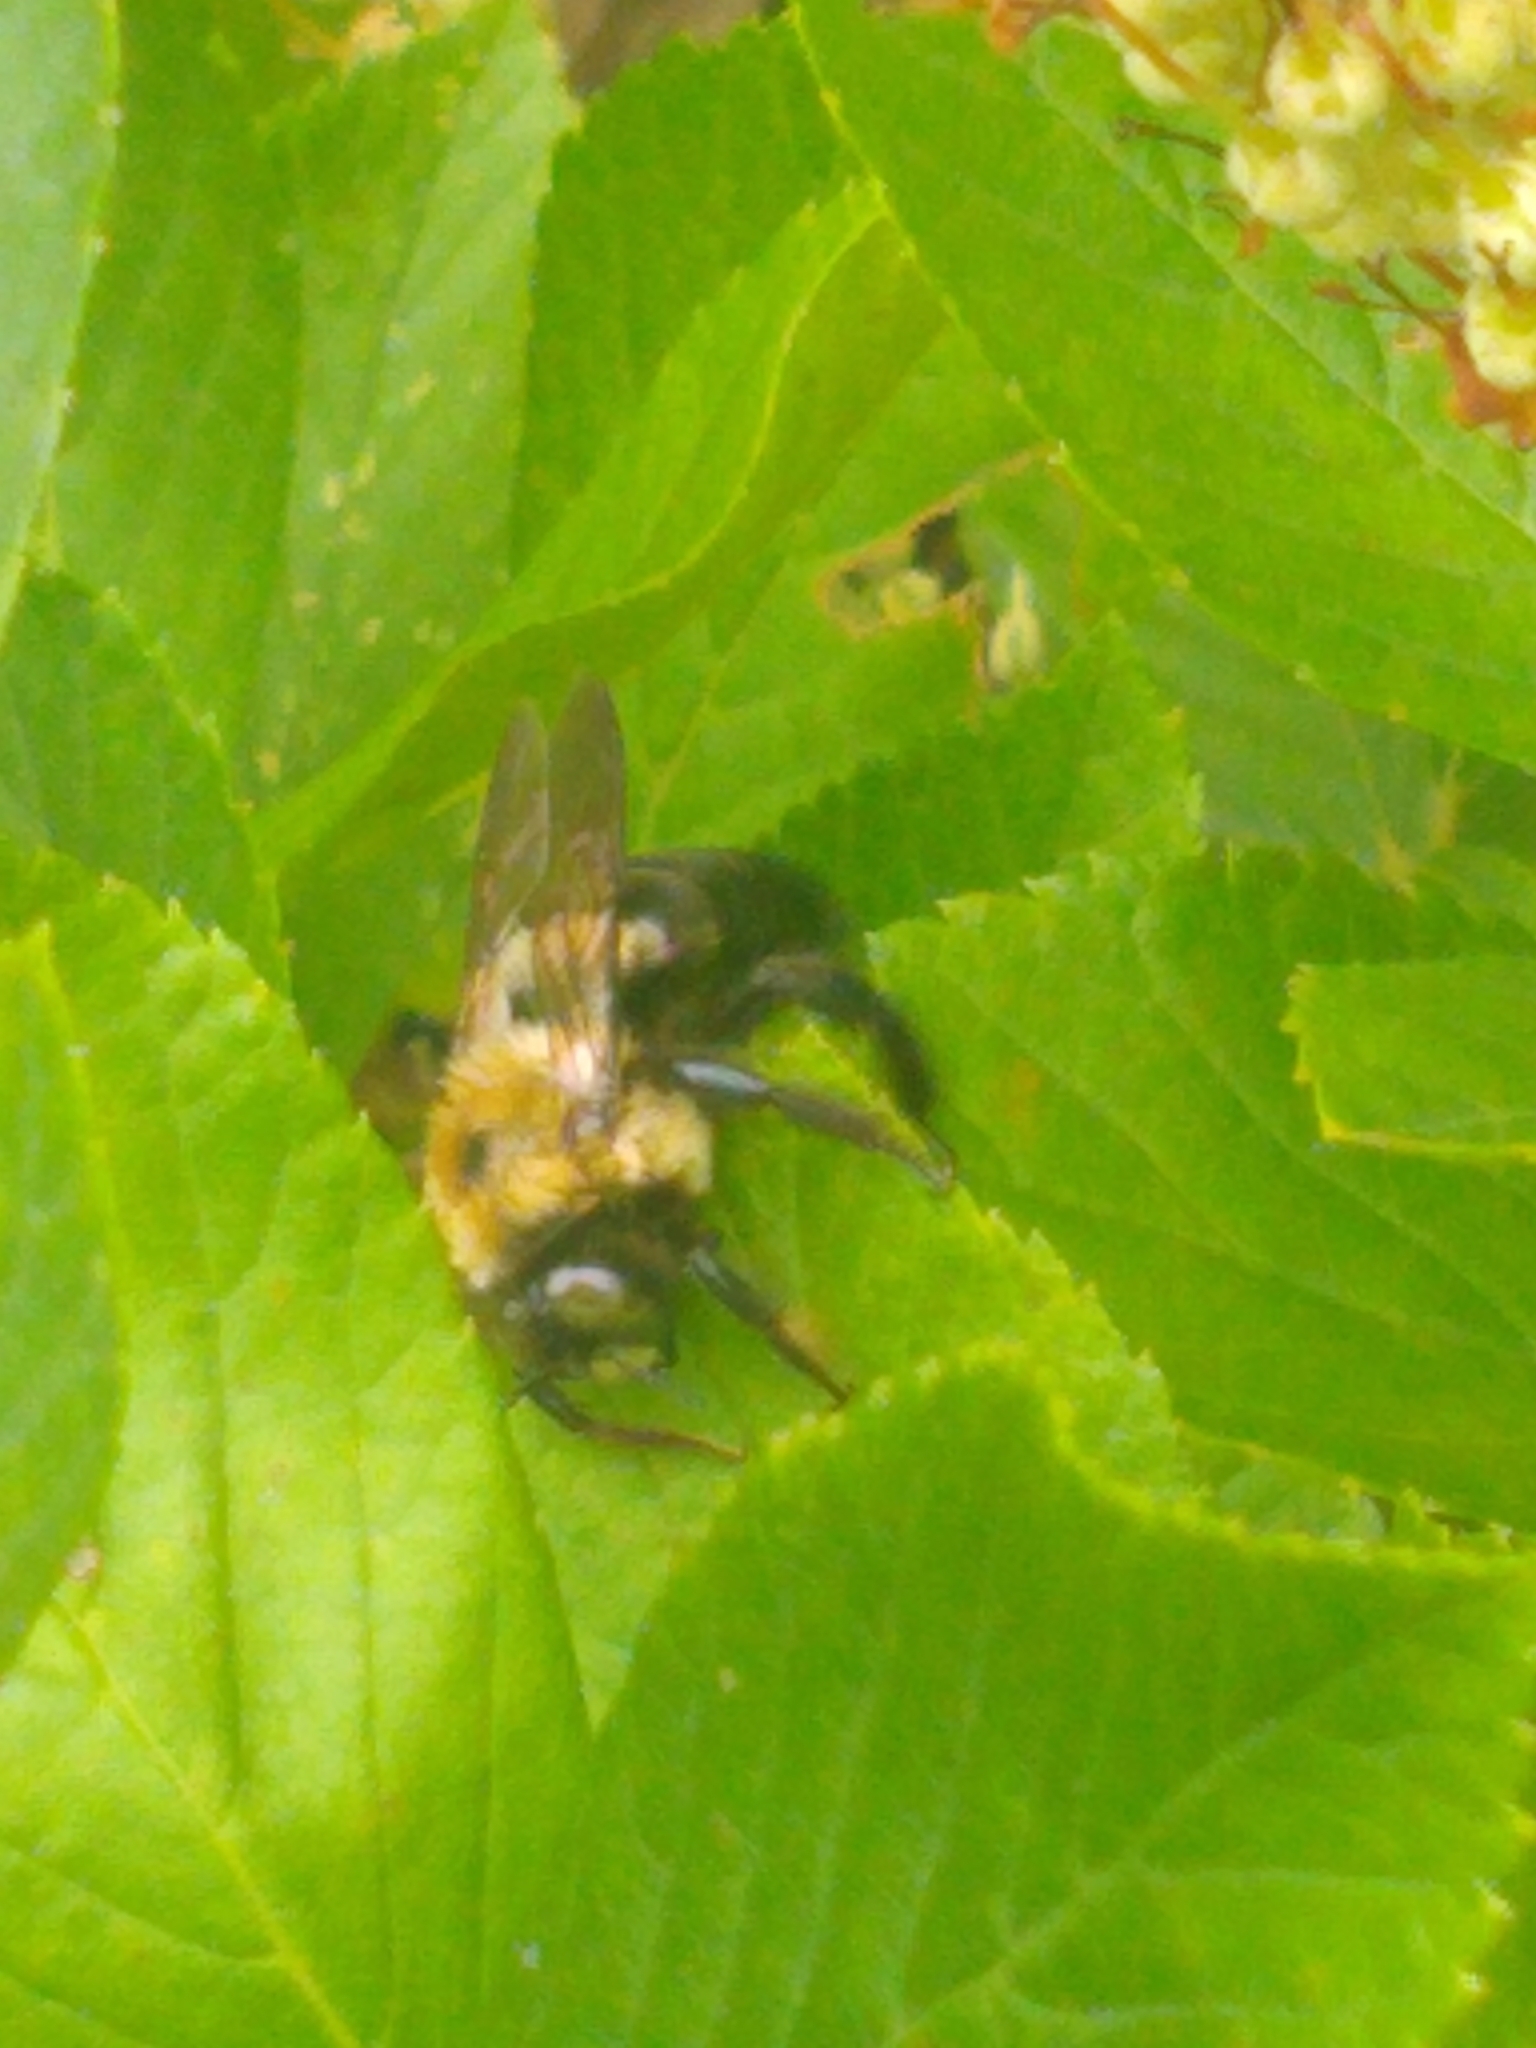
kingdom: Animalia
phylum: Arthropoda
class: Insecta
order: Hymenoptera
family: Apidae
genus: Xylocopa
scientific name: Xylocopa virginica
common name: Carpenter bee
